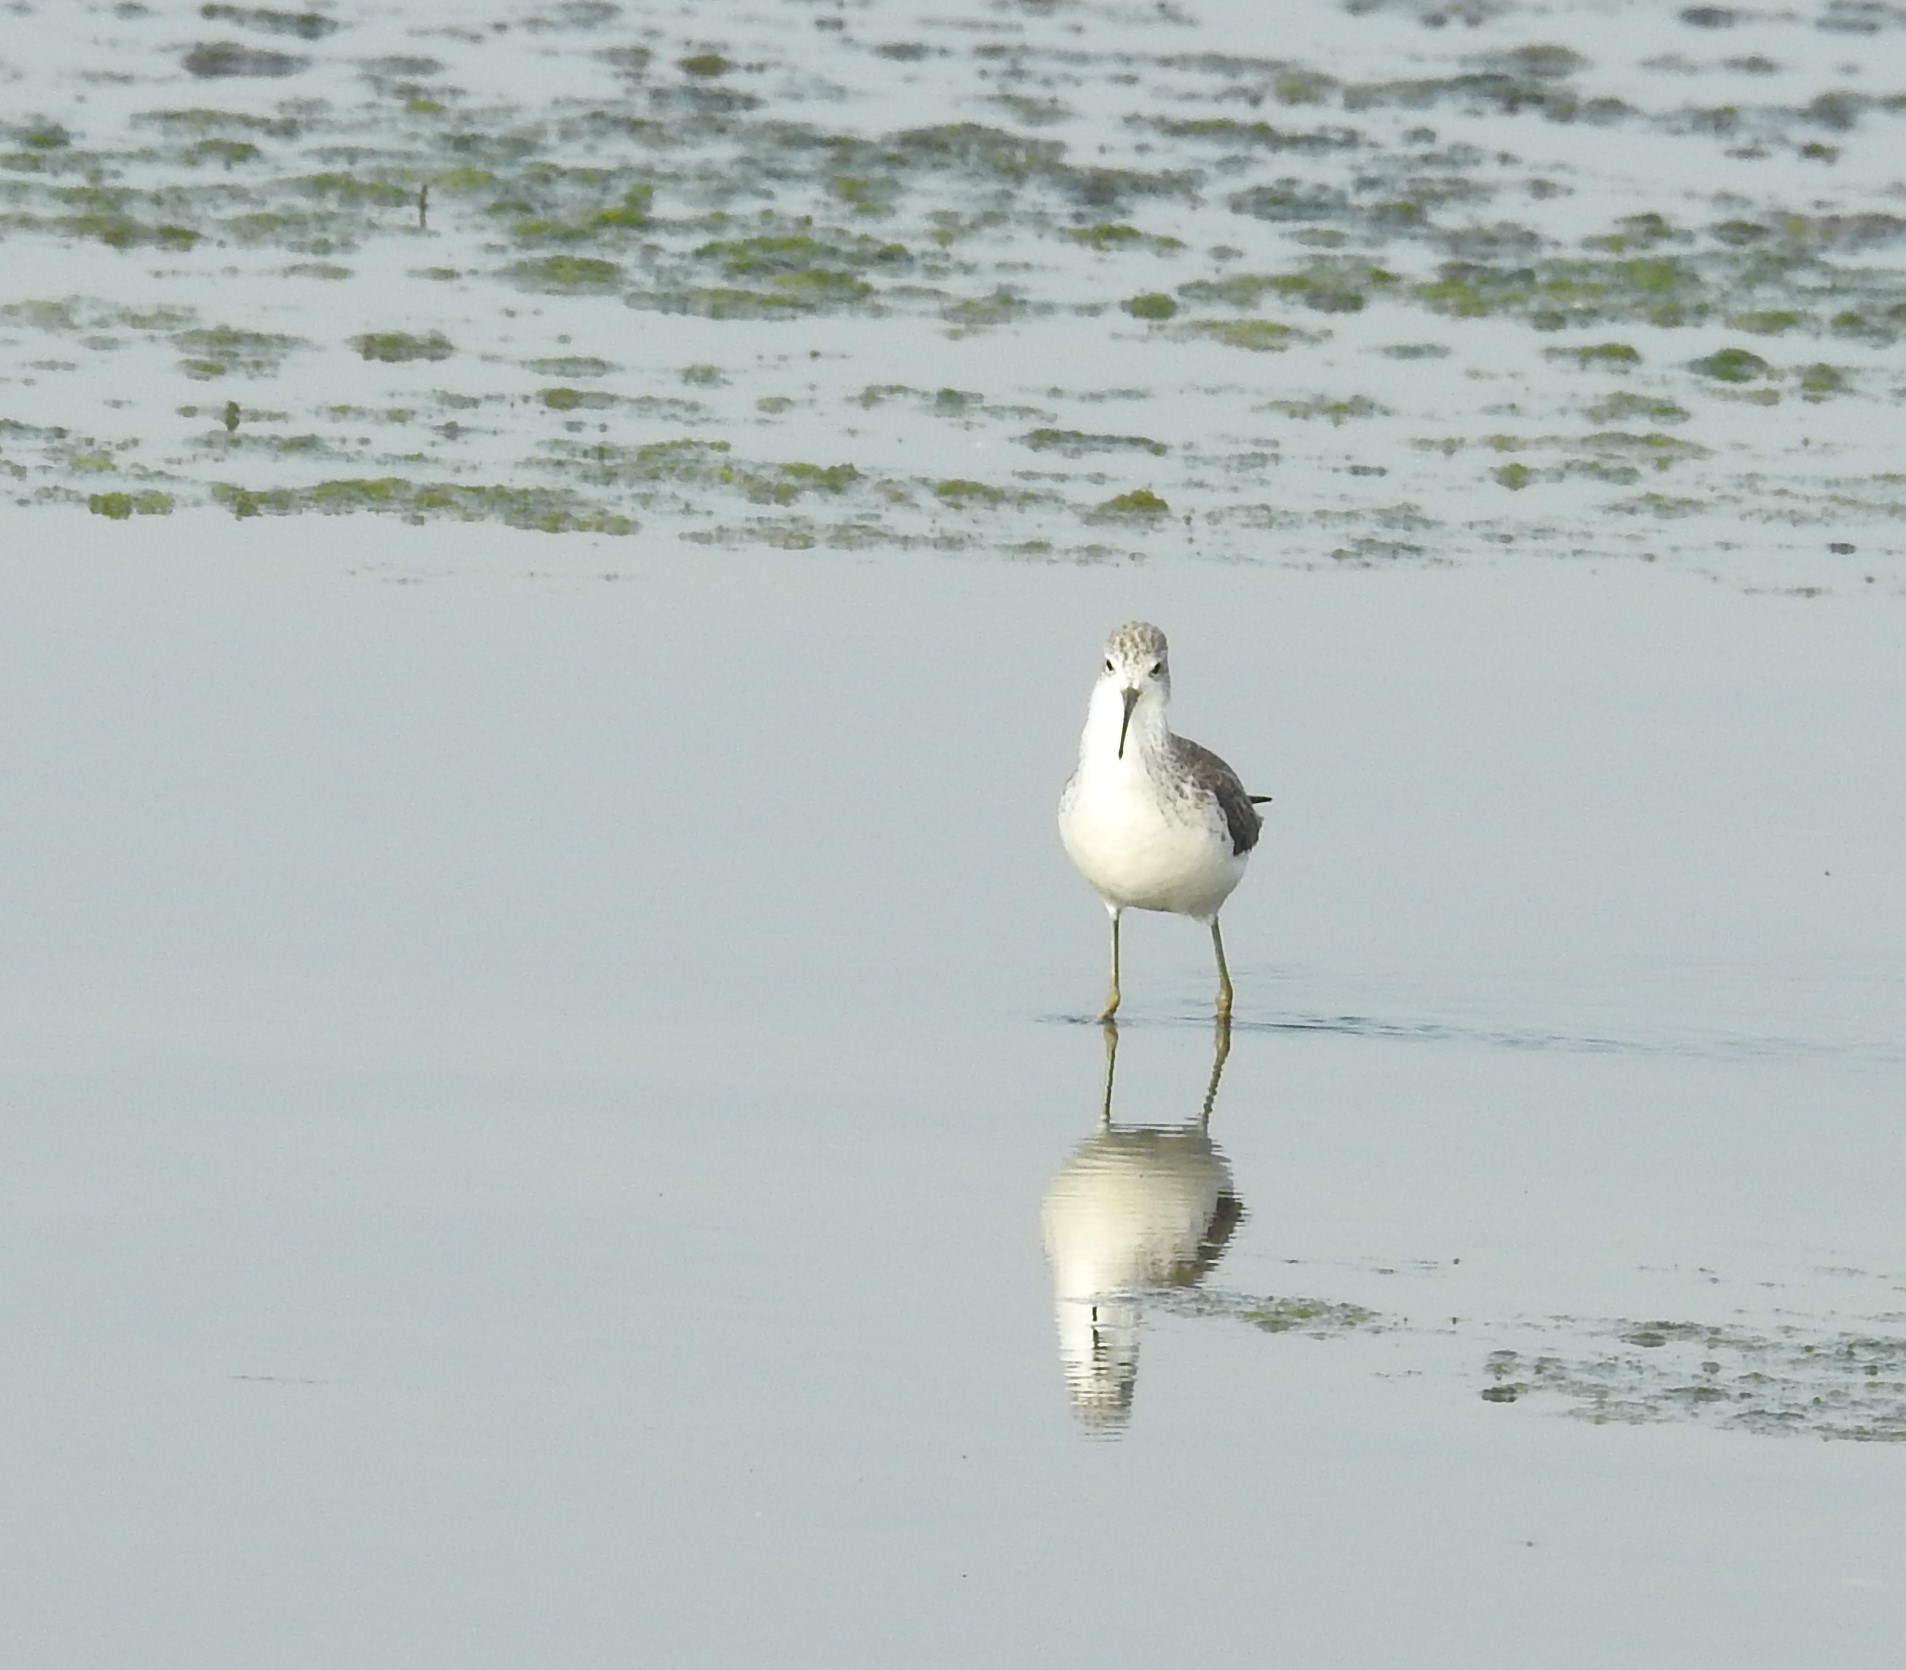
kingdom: Animalia
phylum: Chordata
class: Aves
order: Charadriiformes
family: Scolopacidae
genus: Tringa
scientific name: Tringa stagnatilis
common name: Marsh sandpiper
